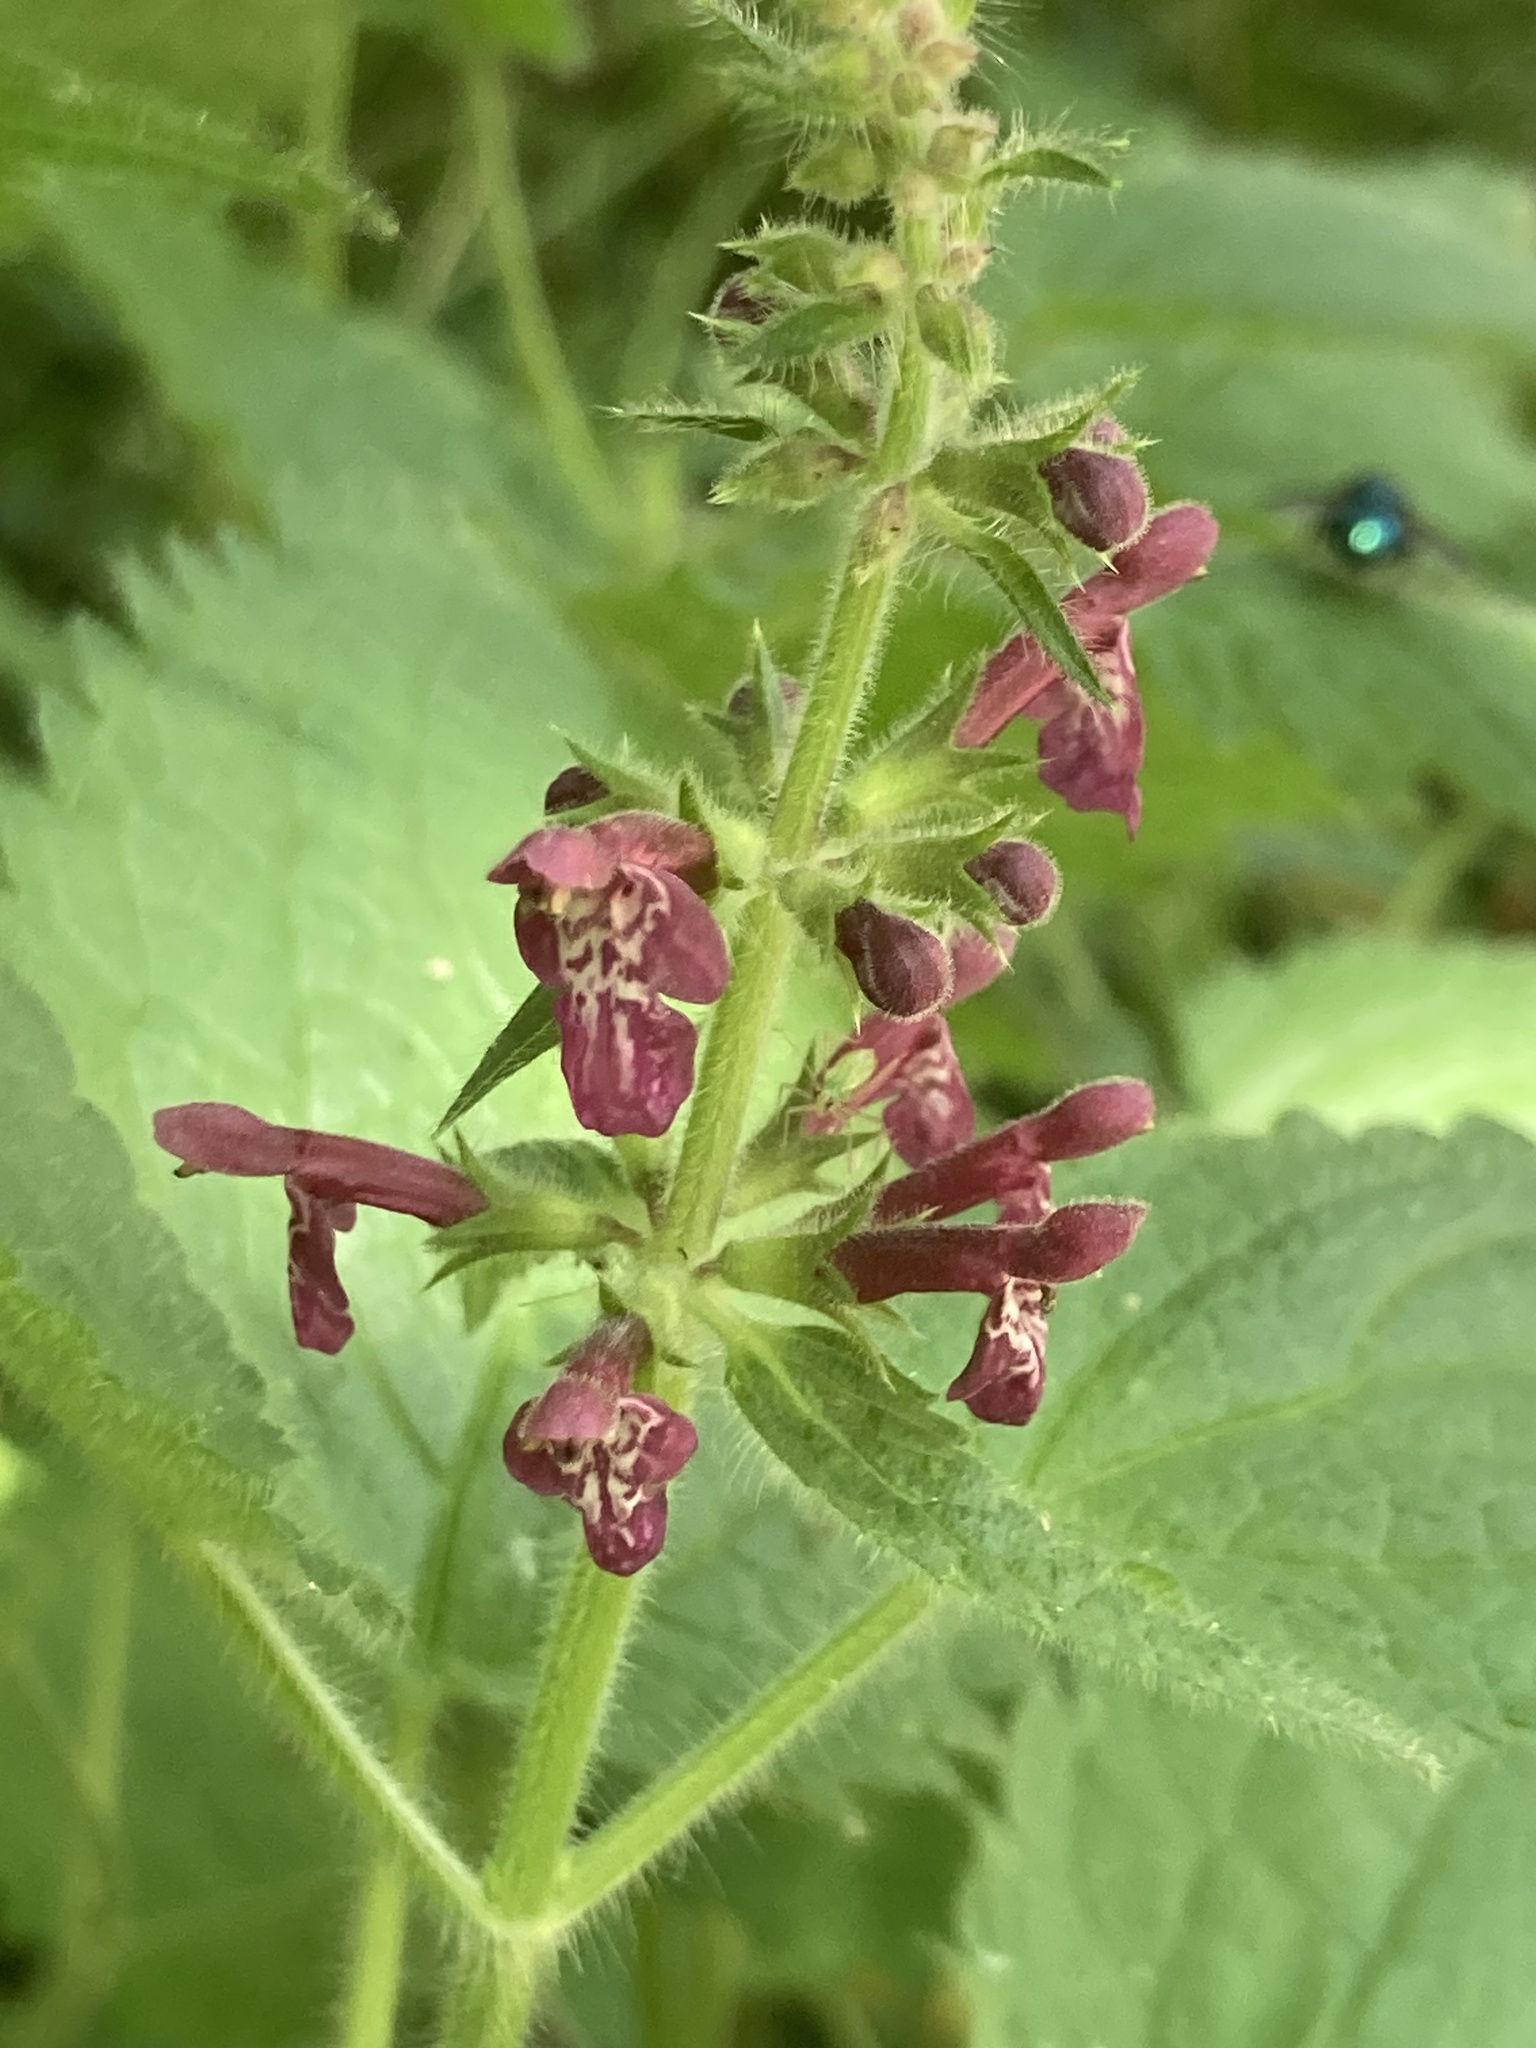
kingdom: Plantae
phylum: Tracheophyta
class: Magnoliopsida
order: Lamiales
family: Lamiaceae
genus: Stachys
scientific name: Stachys sylvatica
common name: Hedge woundwort
